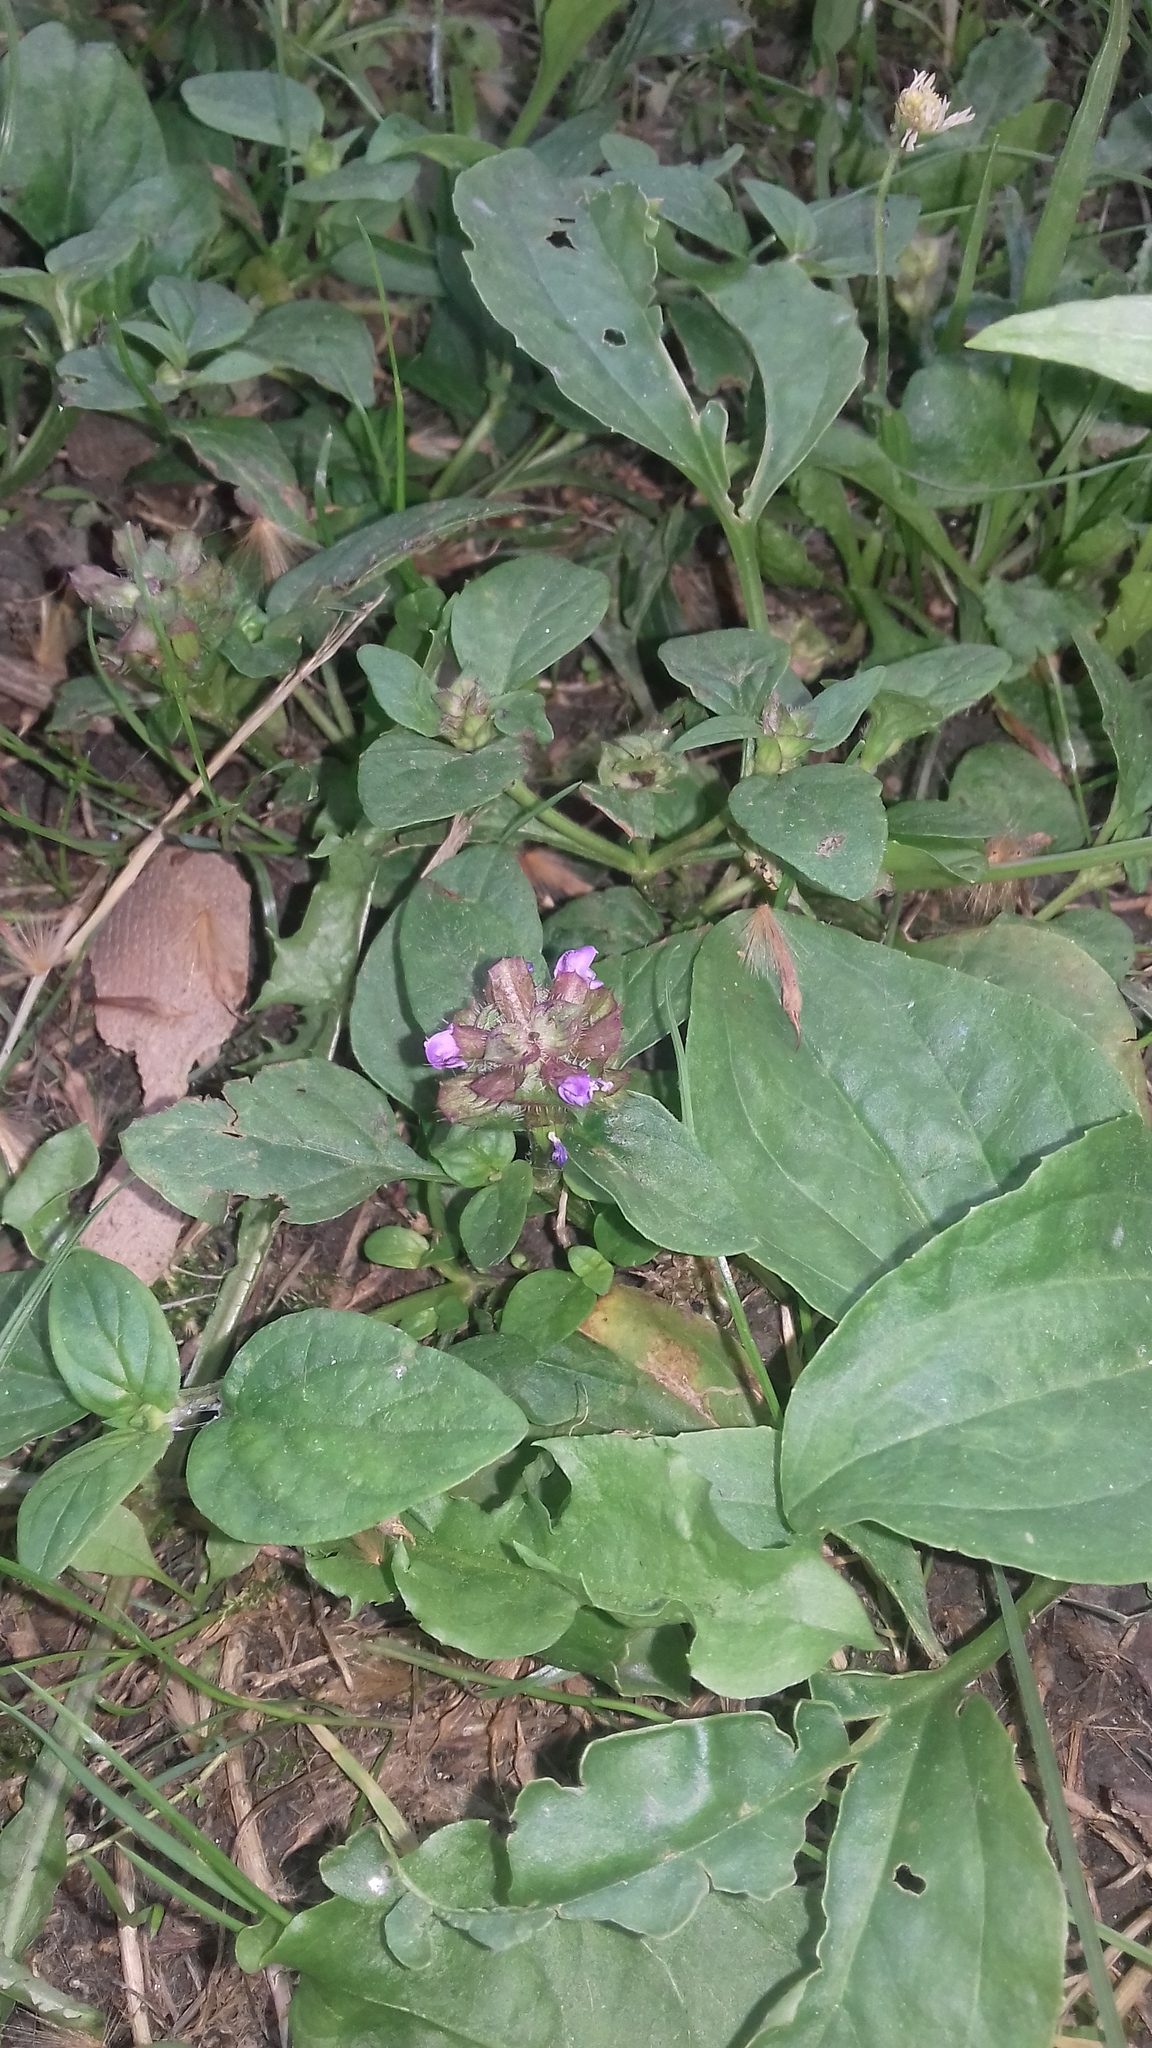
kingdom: Plantae
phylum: Tracheophyta
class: Magnoliopsida
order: Lamiales
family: Lamiaceae
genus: Prunella
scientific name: Prunella vulgaris
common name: Heal-all
